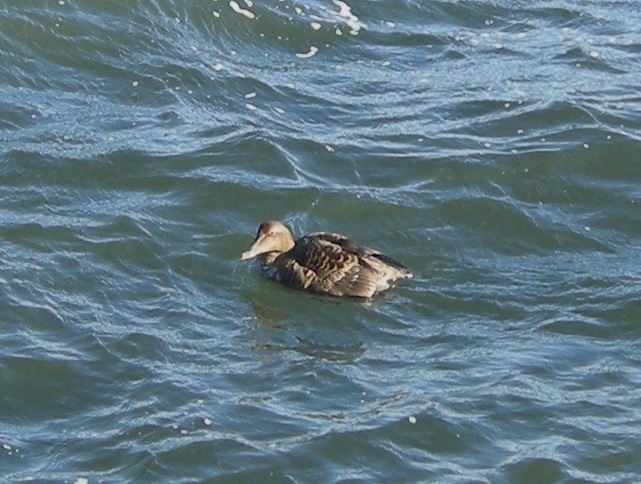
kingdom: Animalia
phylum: Chordata
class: Aves
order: Anseriformes
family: Anatidae
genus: Somateria
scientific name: Somateria mollissima
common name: Common eider
